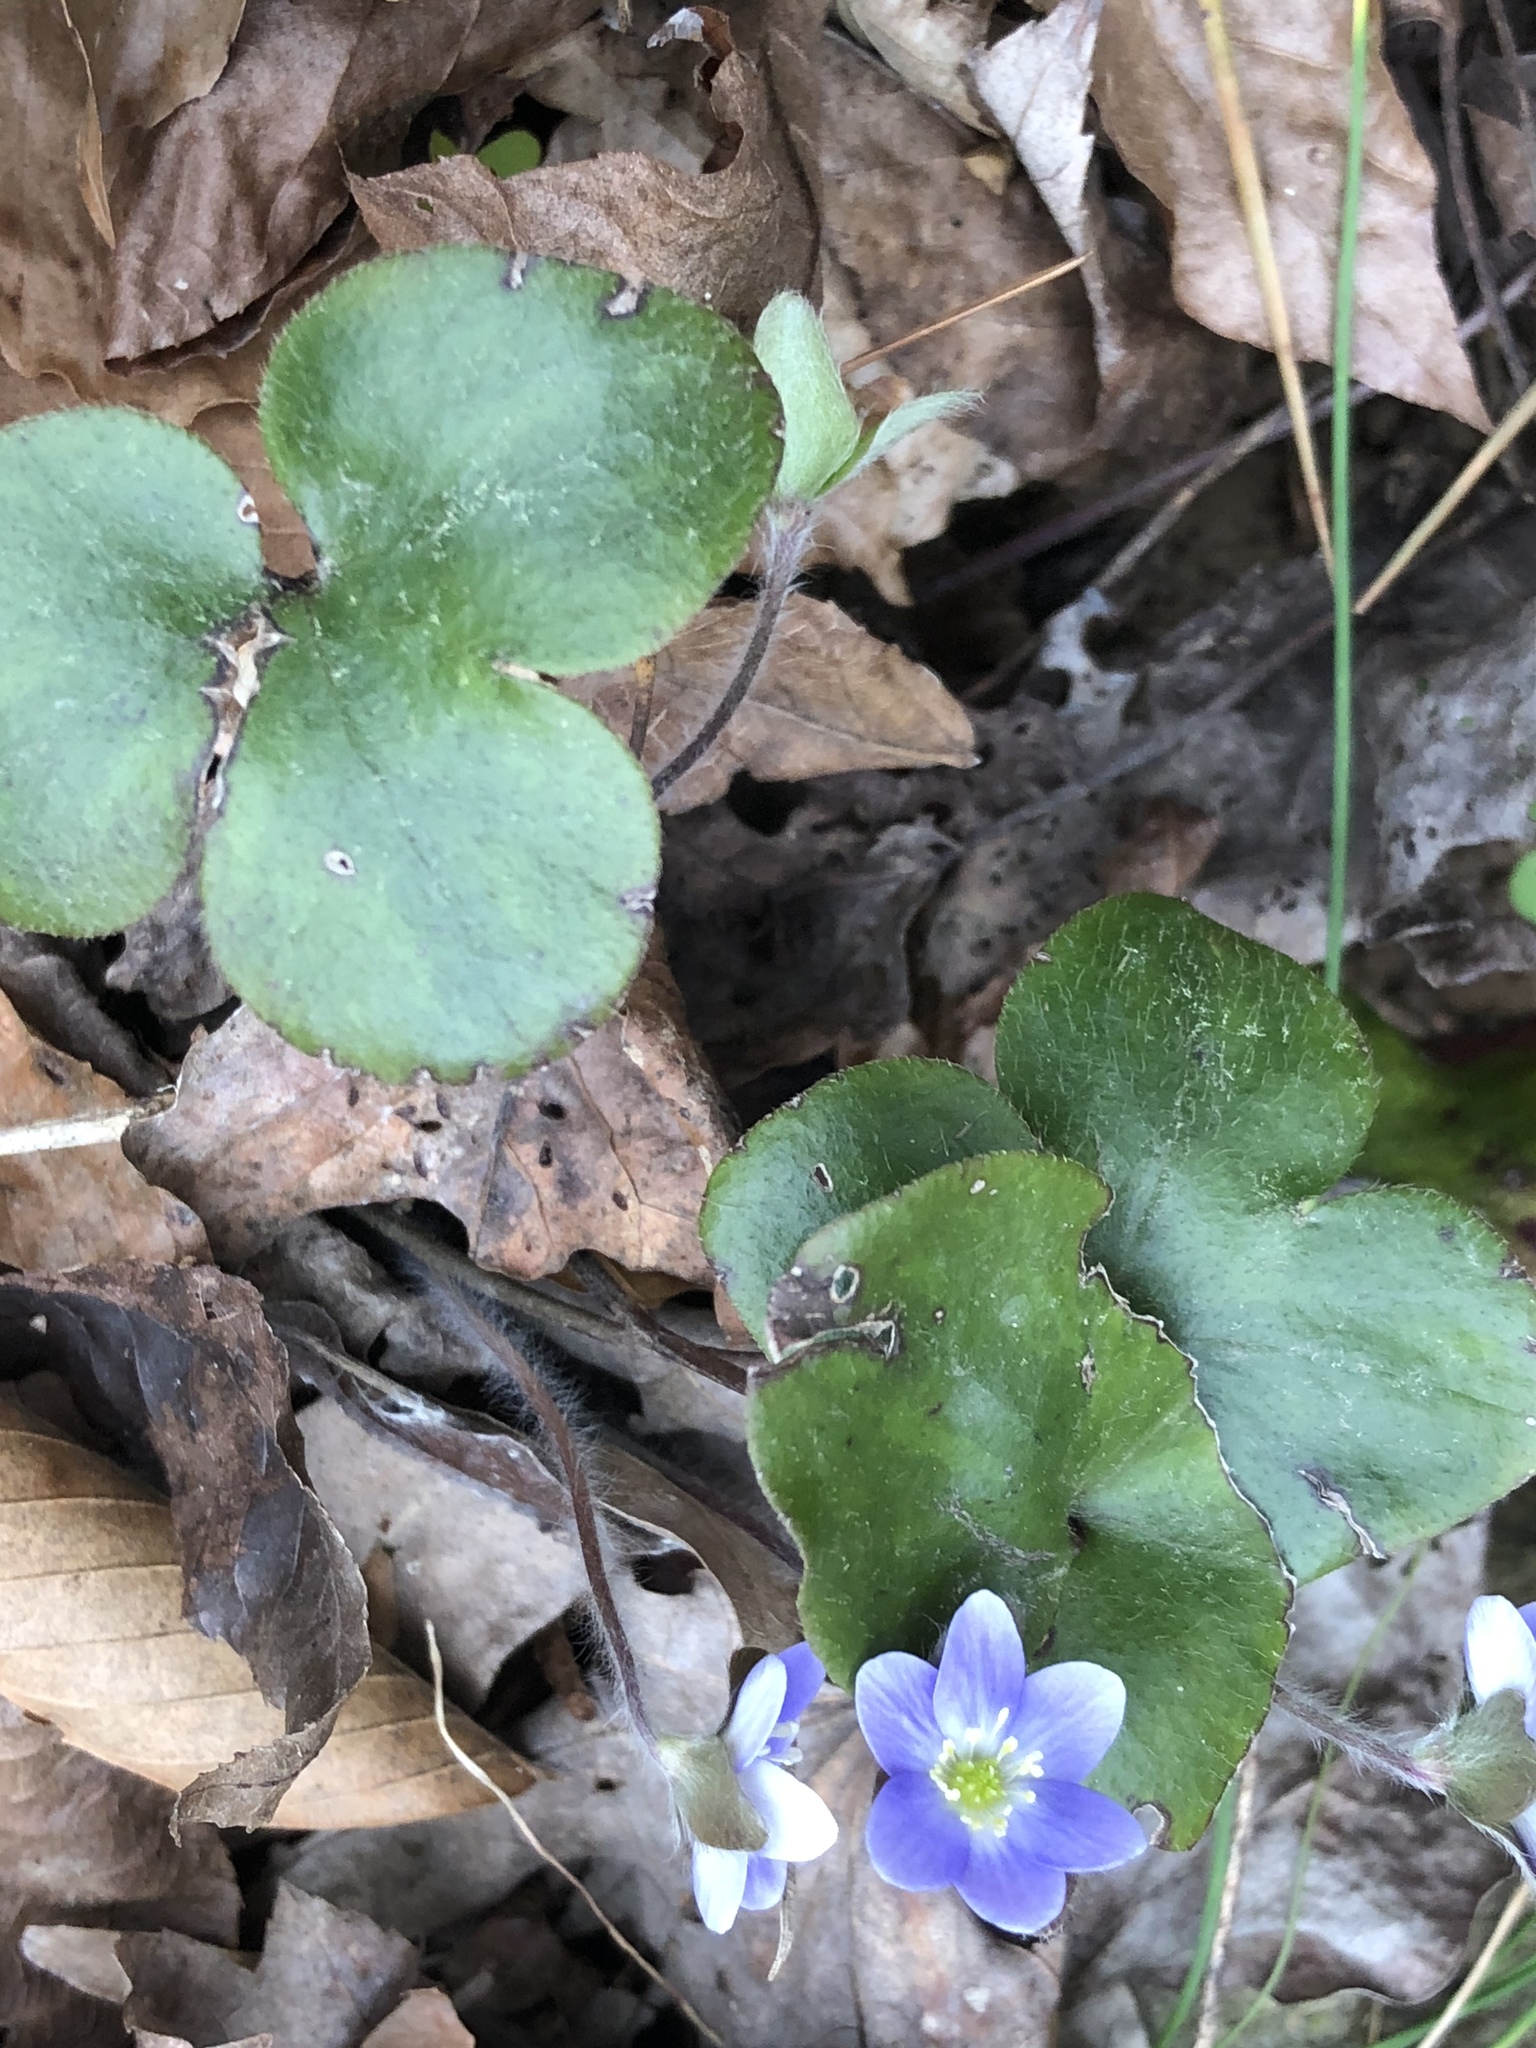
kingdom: Plantae
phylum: Tracheophyta
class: Magnoliopsida
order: Ranunculales
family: Ranunculaceae
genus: Hepatica
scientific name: Hepatica americana
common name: American hepatica
